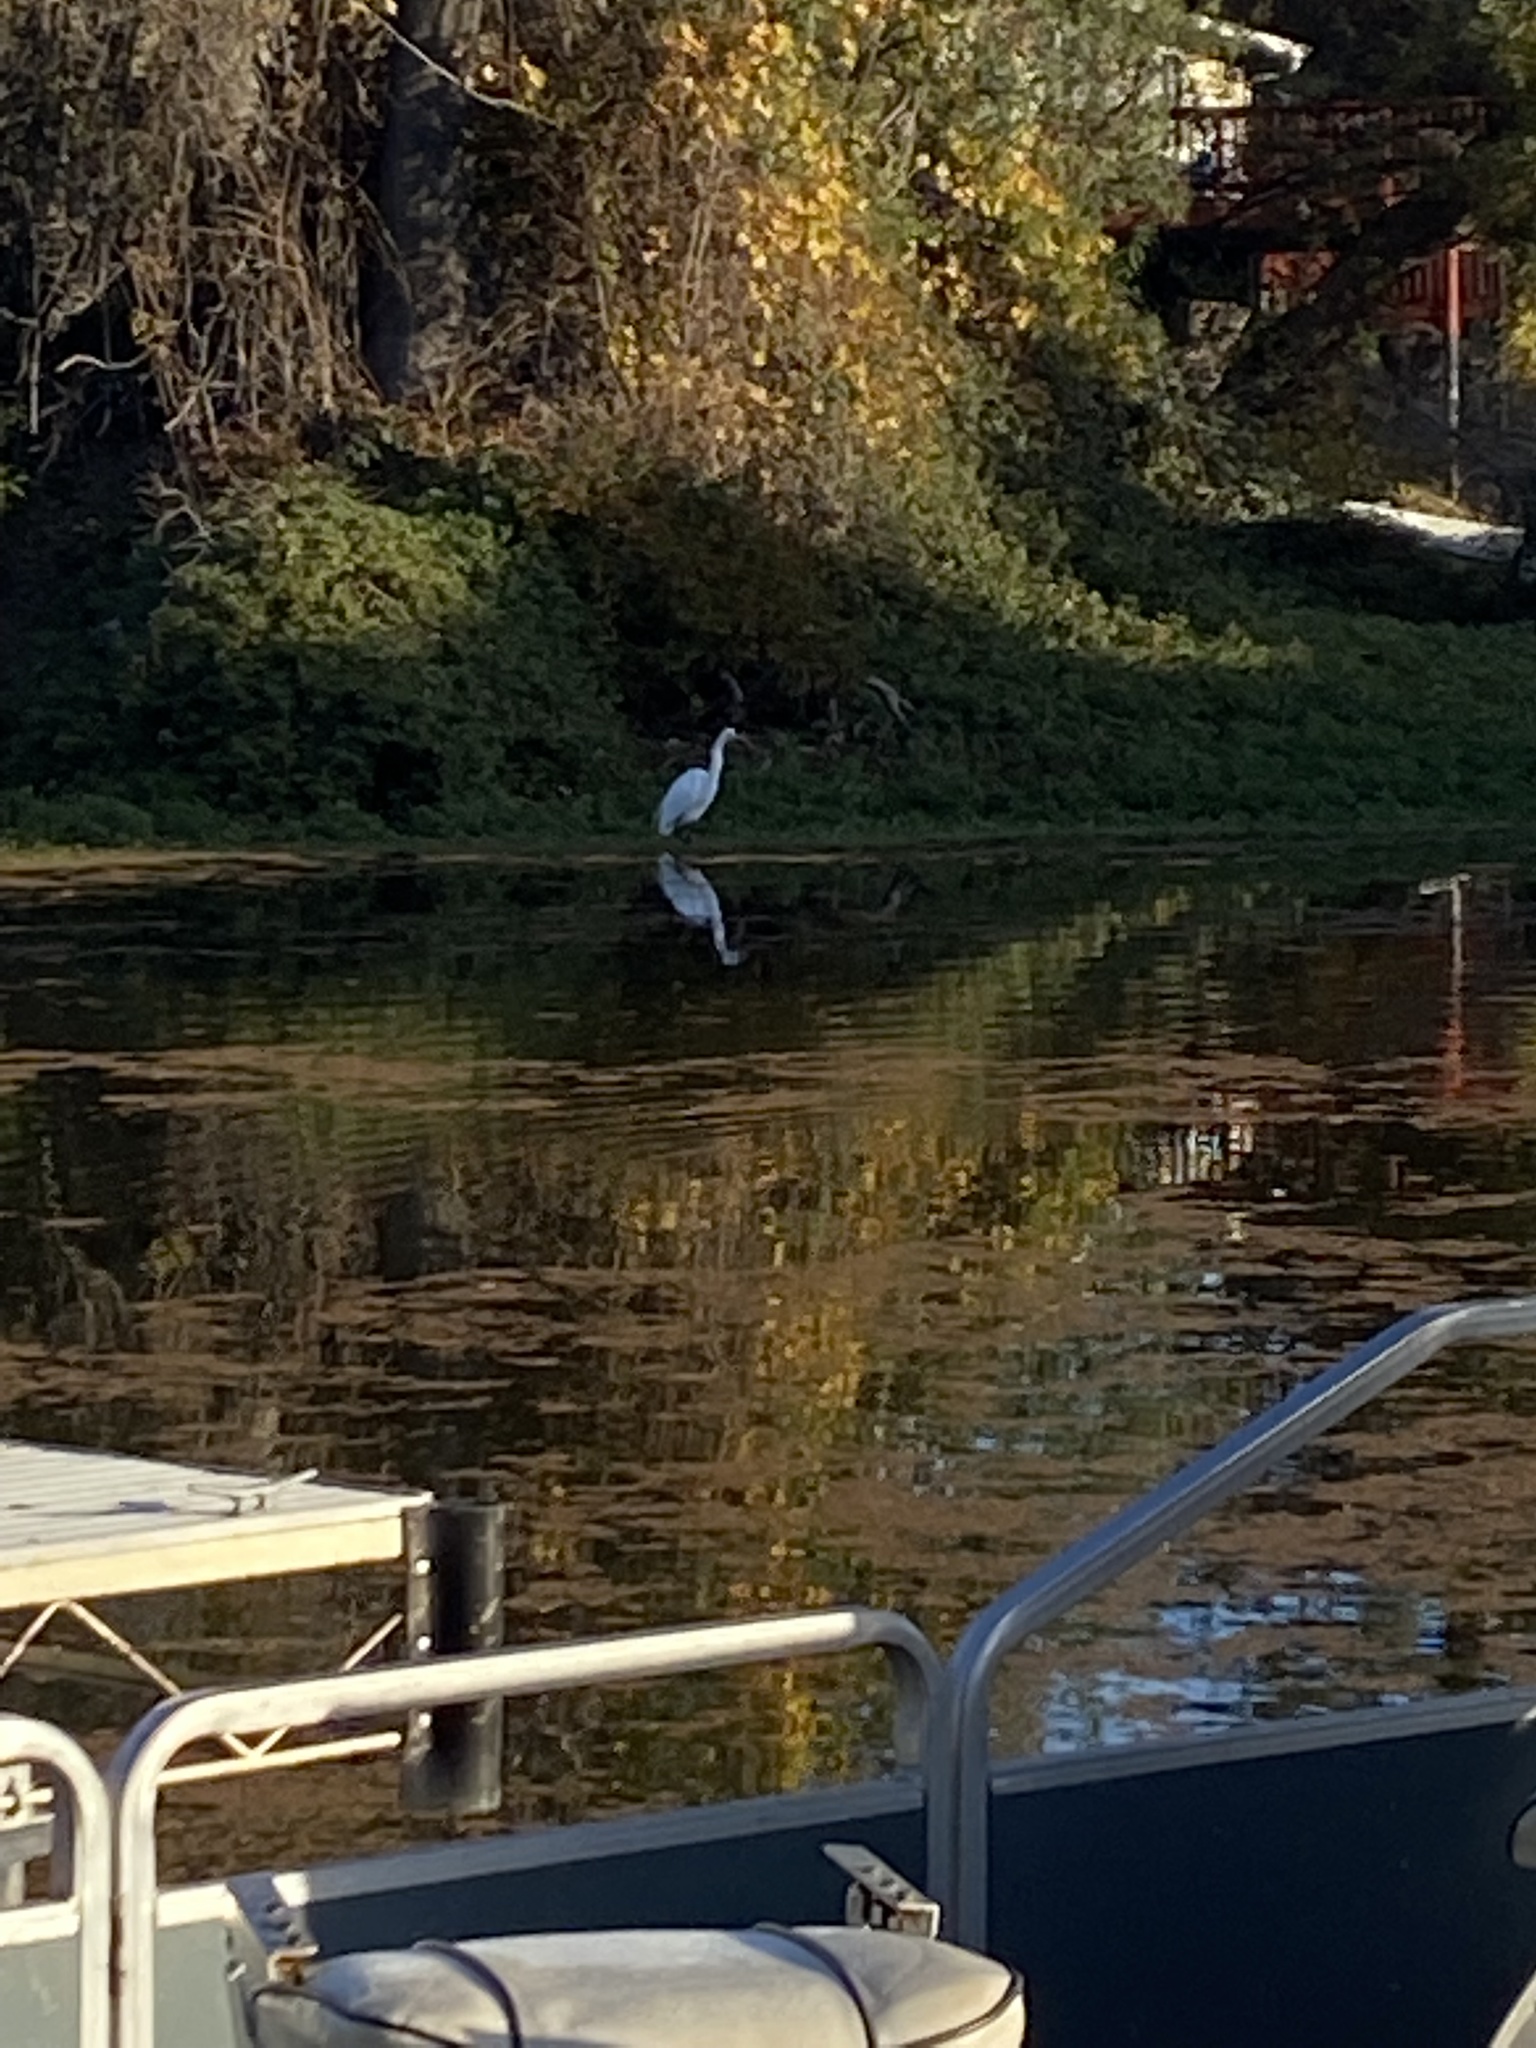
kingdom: Animalia
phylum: Chordata
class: Aves
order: Pelecaniformes
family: Ardeidae
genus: Ardea
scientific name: Ardea alba
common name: Great egret
